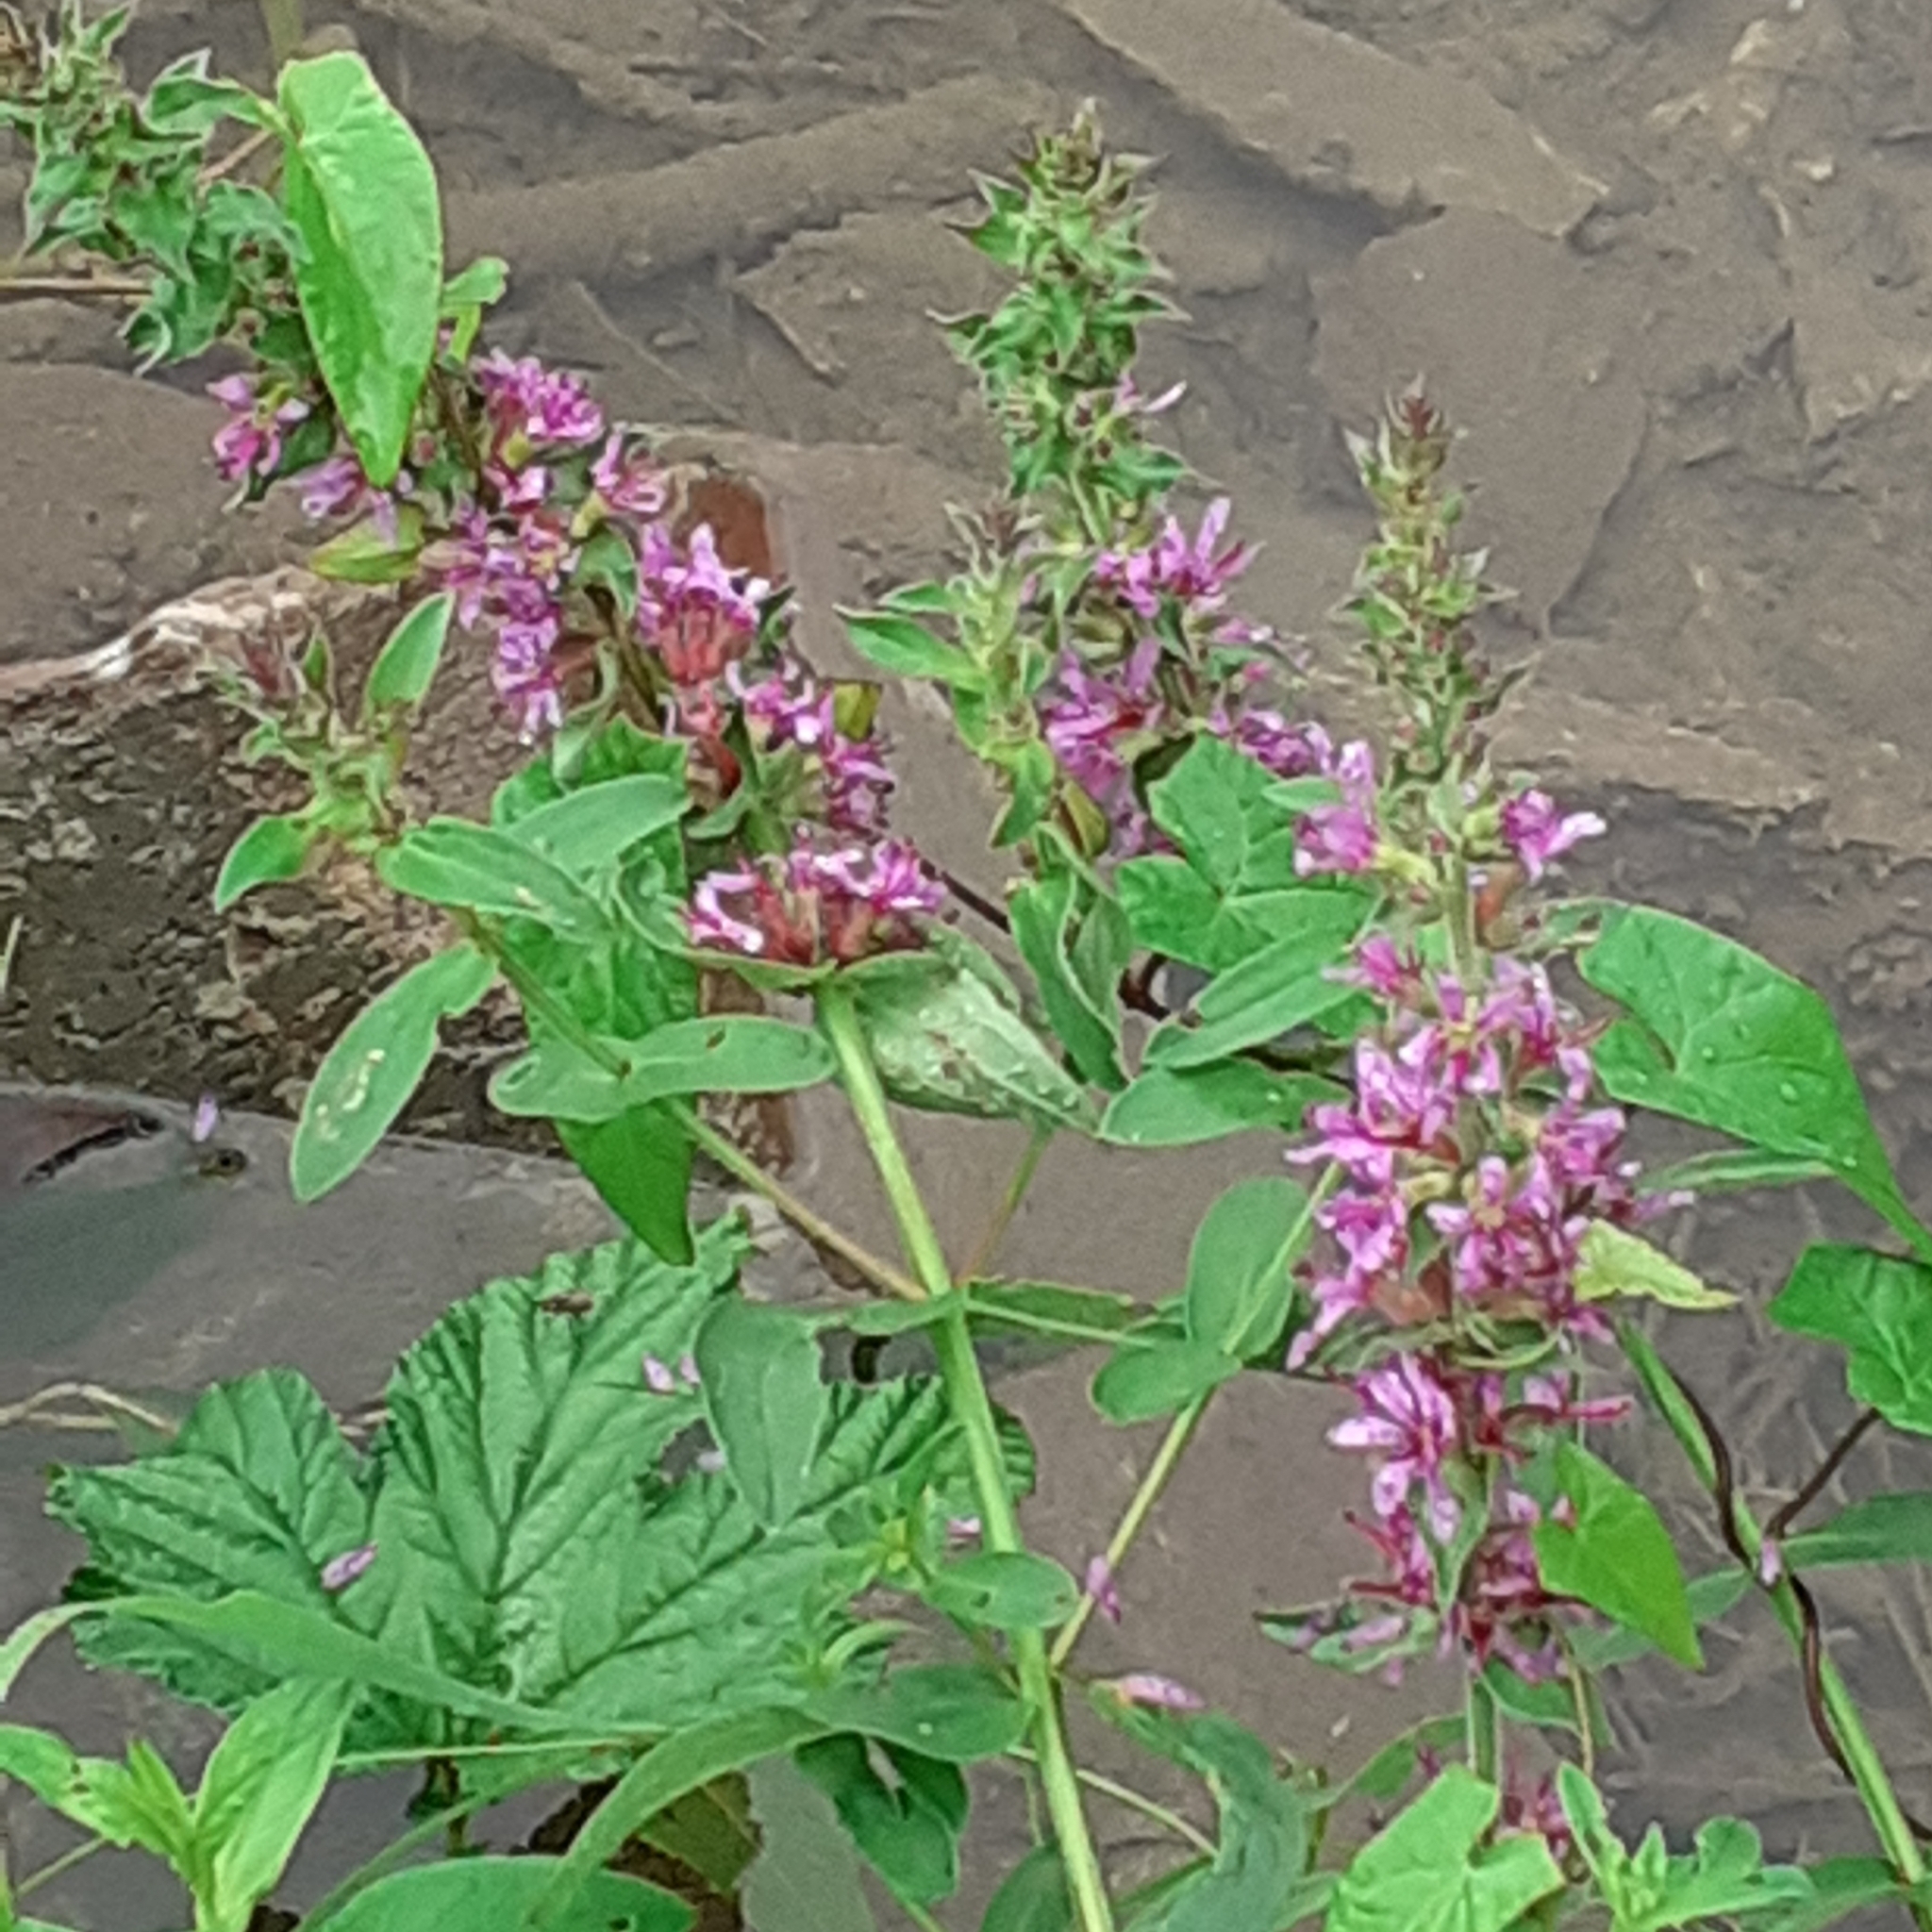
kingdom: Plantae
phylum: Tracheophyta
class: Magnoliopsida
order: Myrtales
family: Lythraceae
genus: Lythrum
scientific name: Lythrum salicaria
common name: Purple loosestrife
